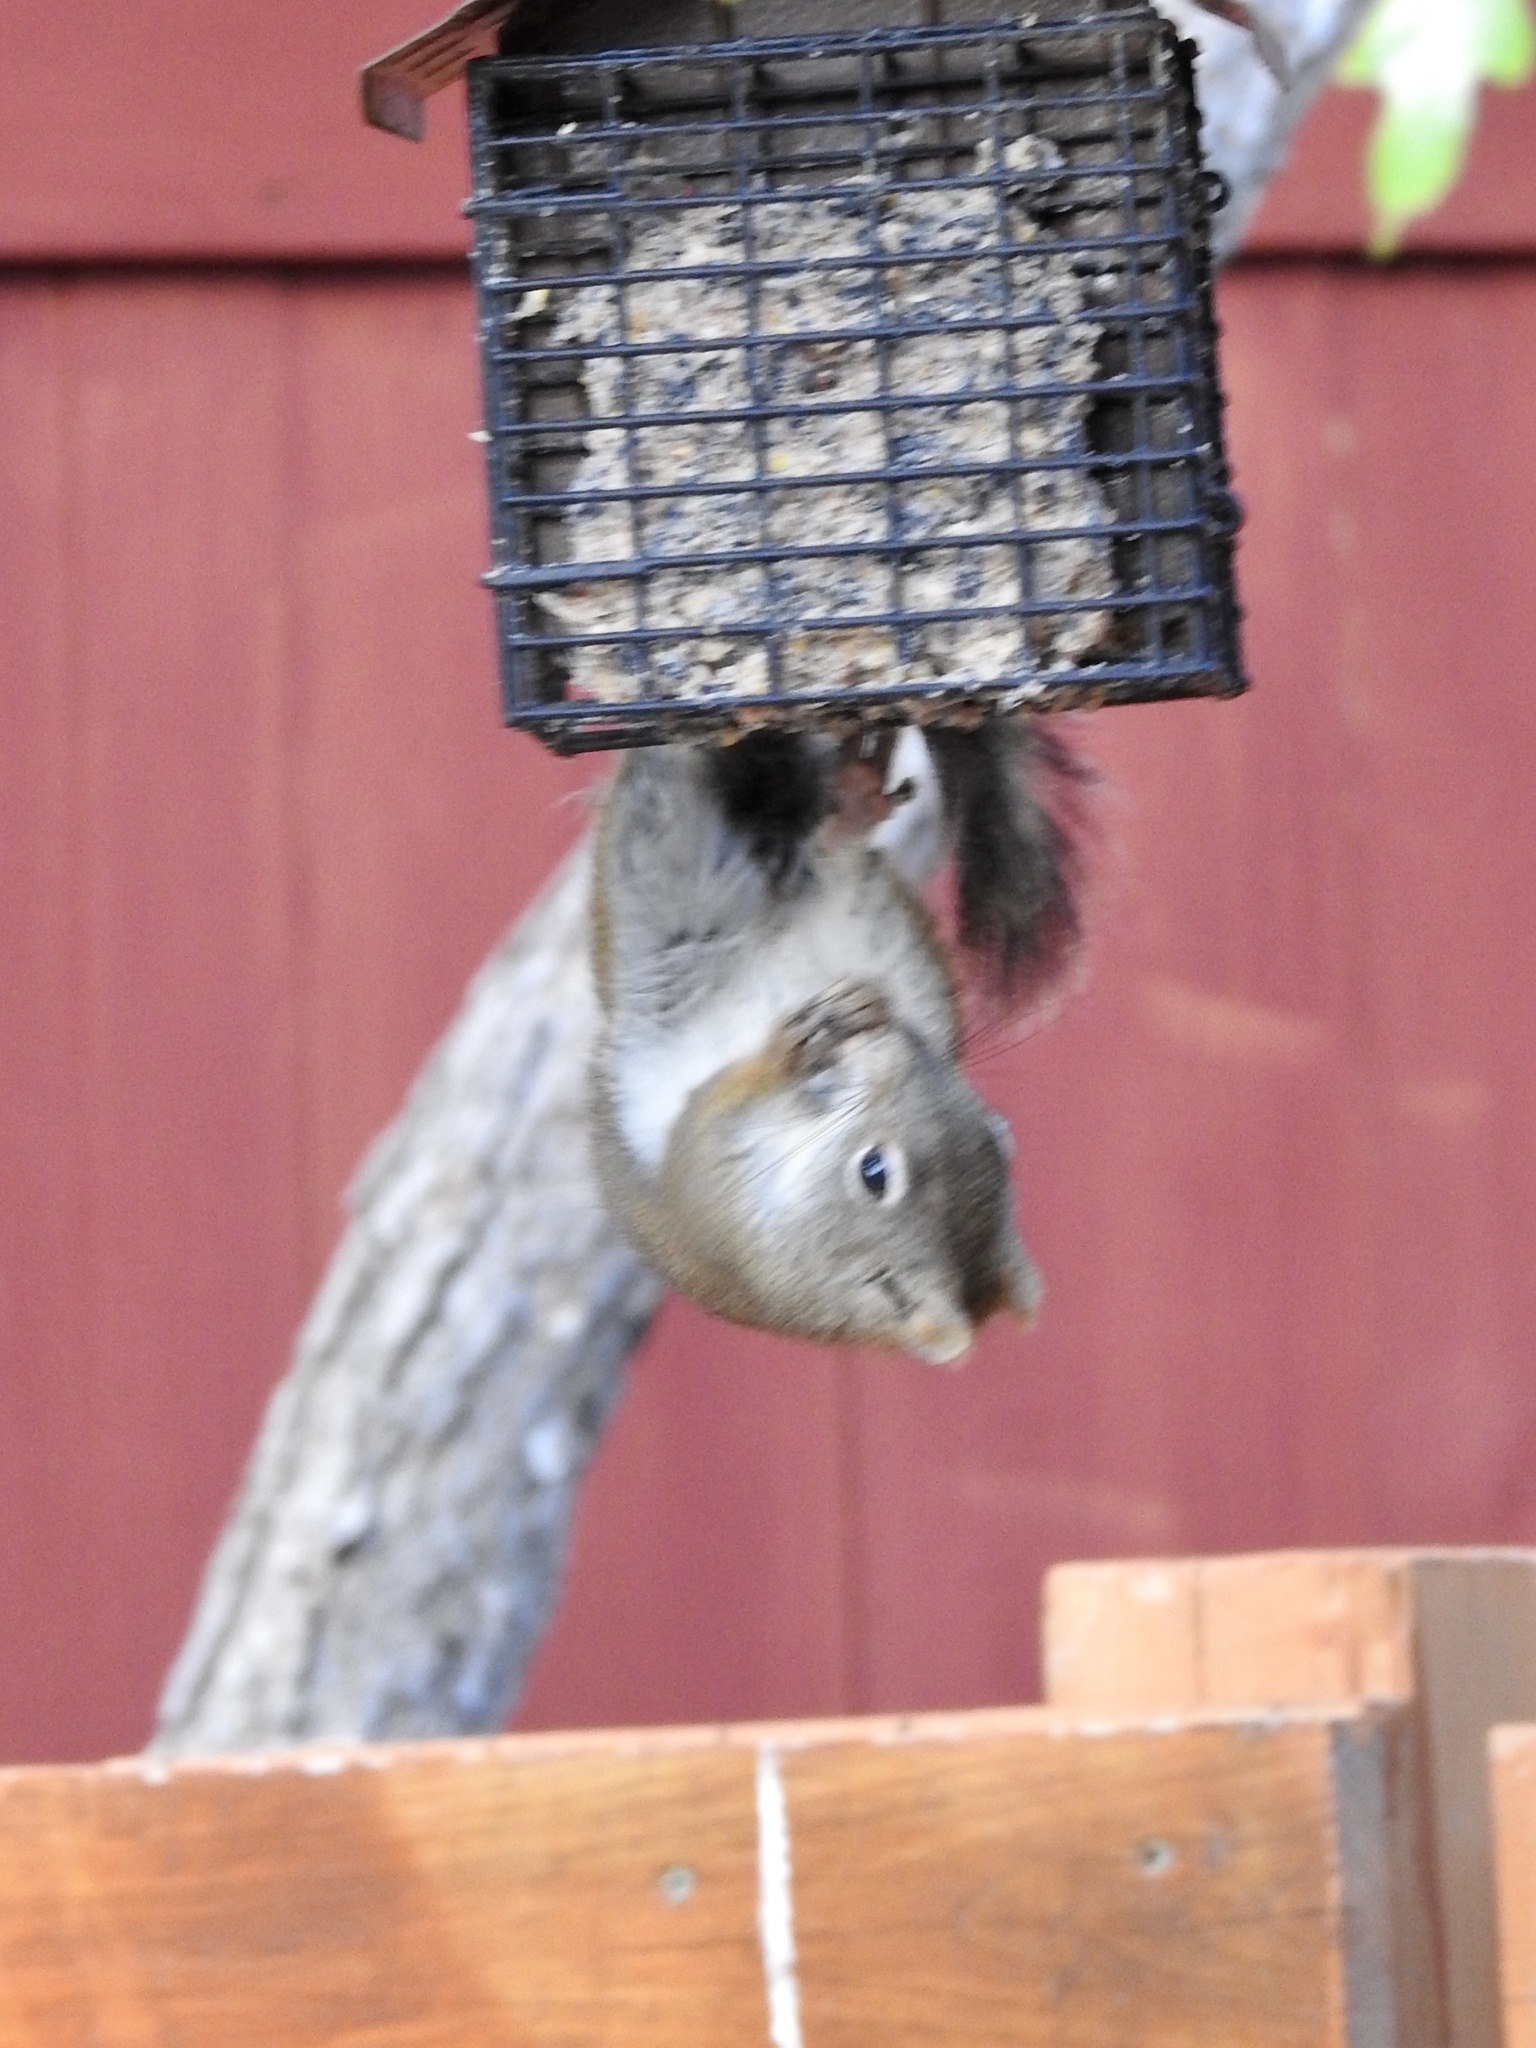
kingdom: Animalia
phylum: Chordata
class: Mammalia
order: Rodentia
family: Sciuridae
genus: Tamiasciurus
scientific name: Tamiasciurus hudsonicus
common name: Red squirrel
